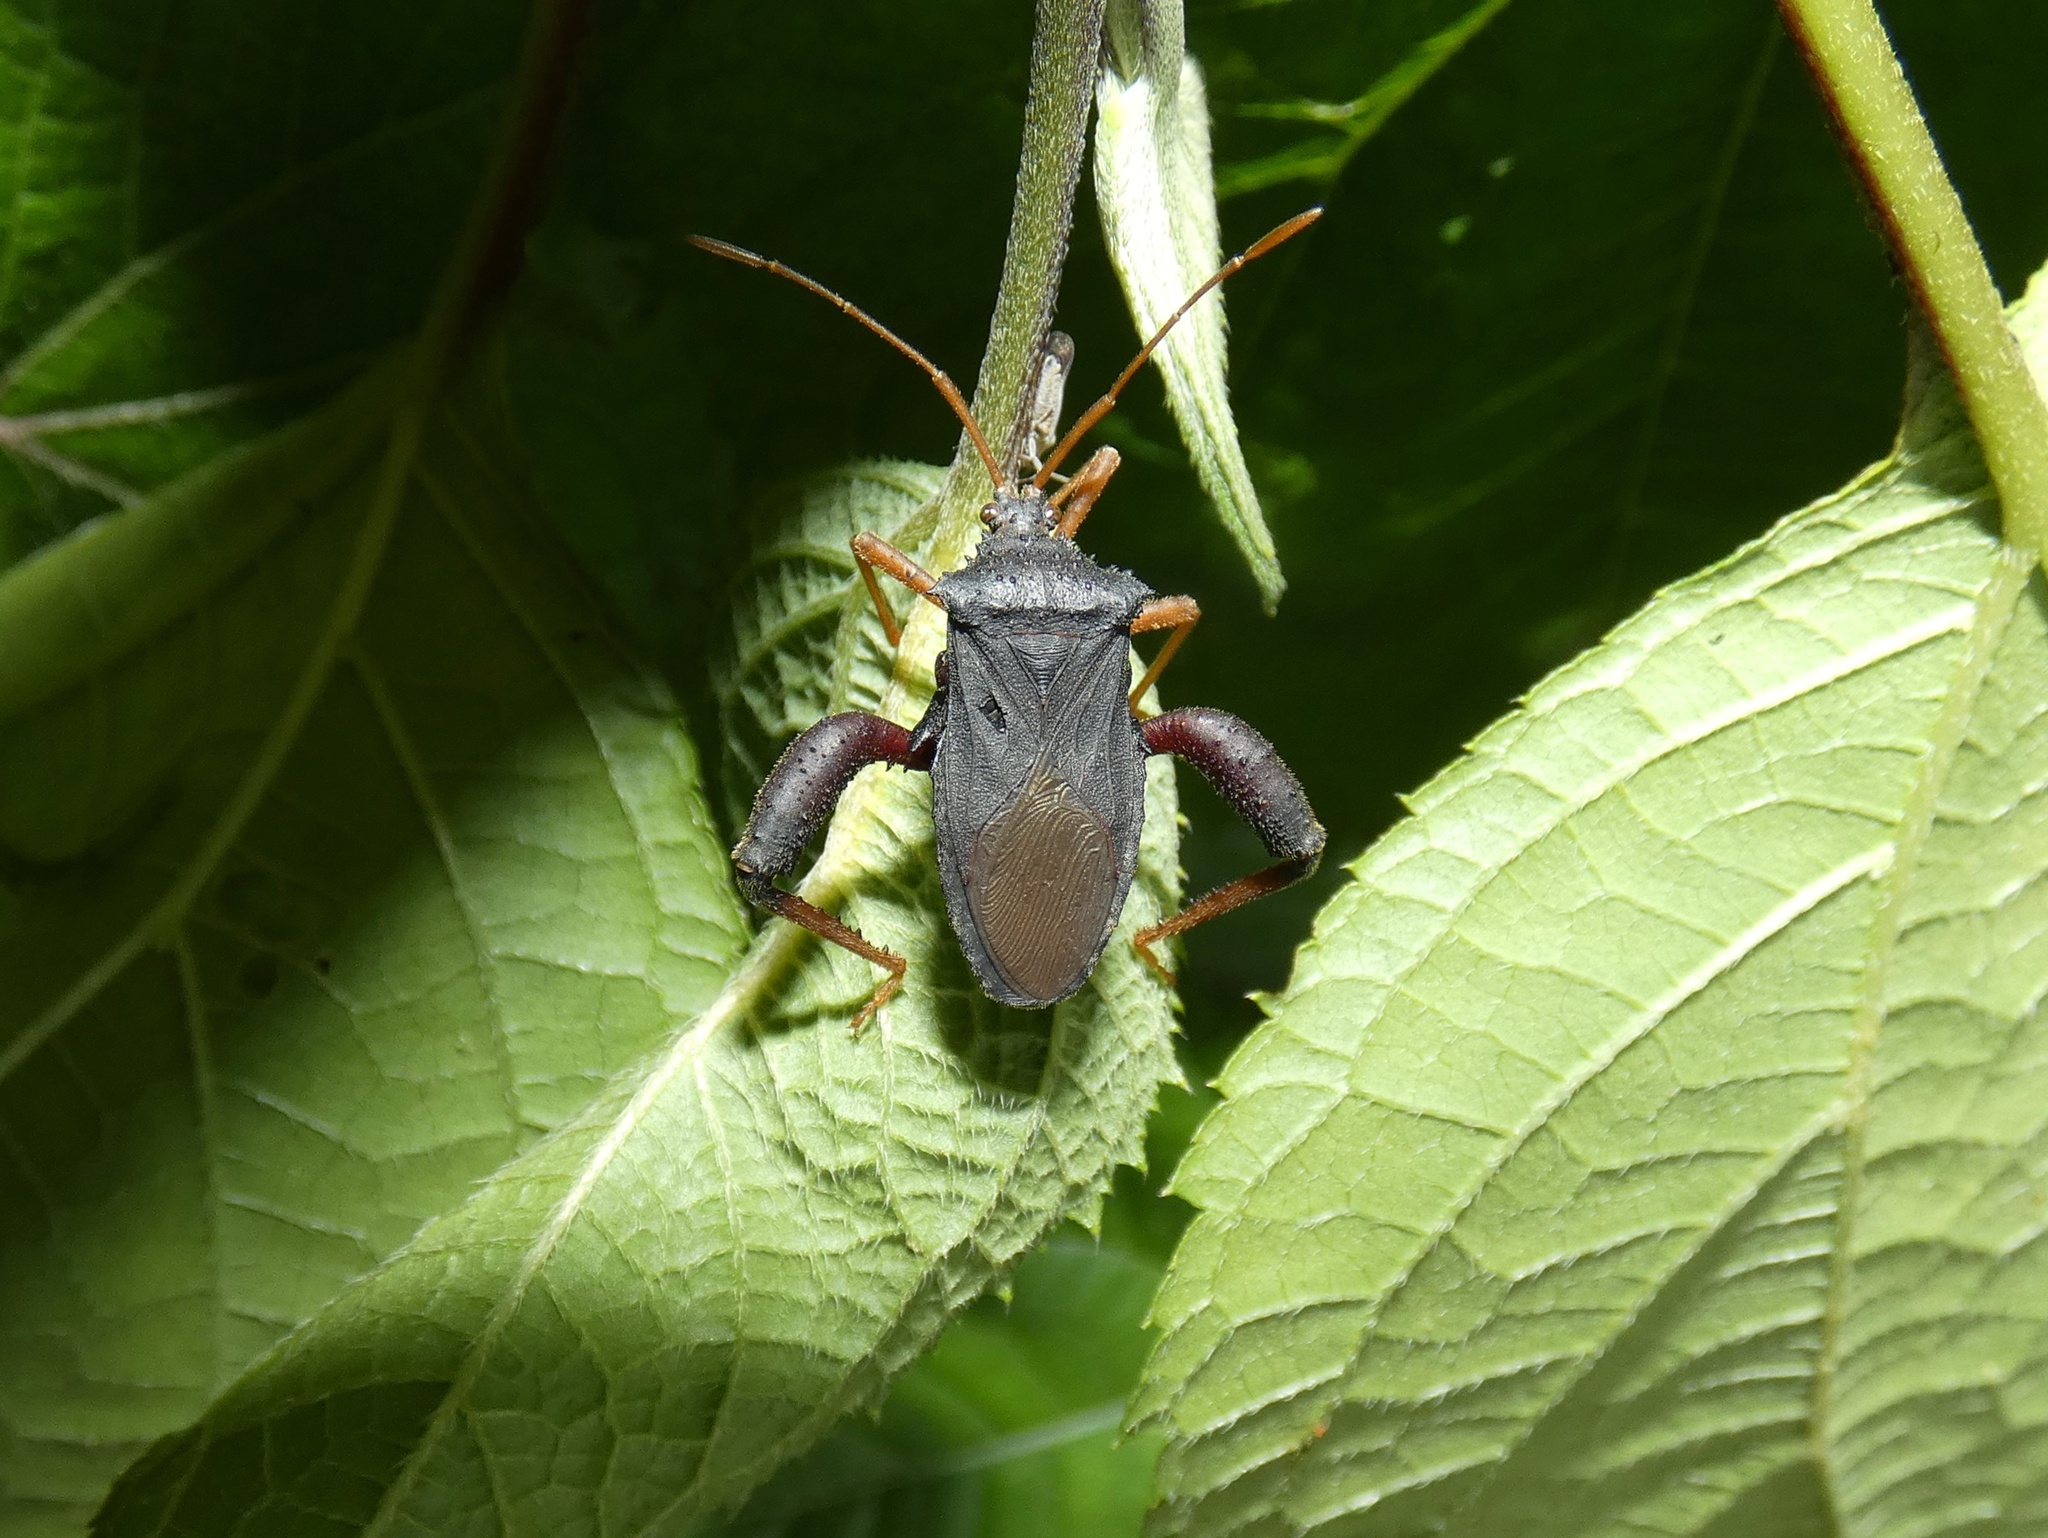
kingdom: Animalia
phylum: Arthropoda
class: Insecta
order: Hemiptera
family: Coreidae
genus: Camptischium
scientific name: Camptischium clavipes
